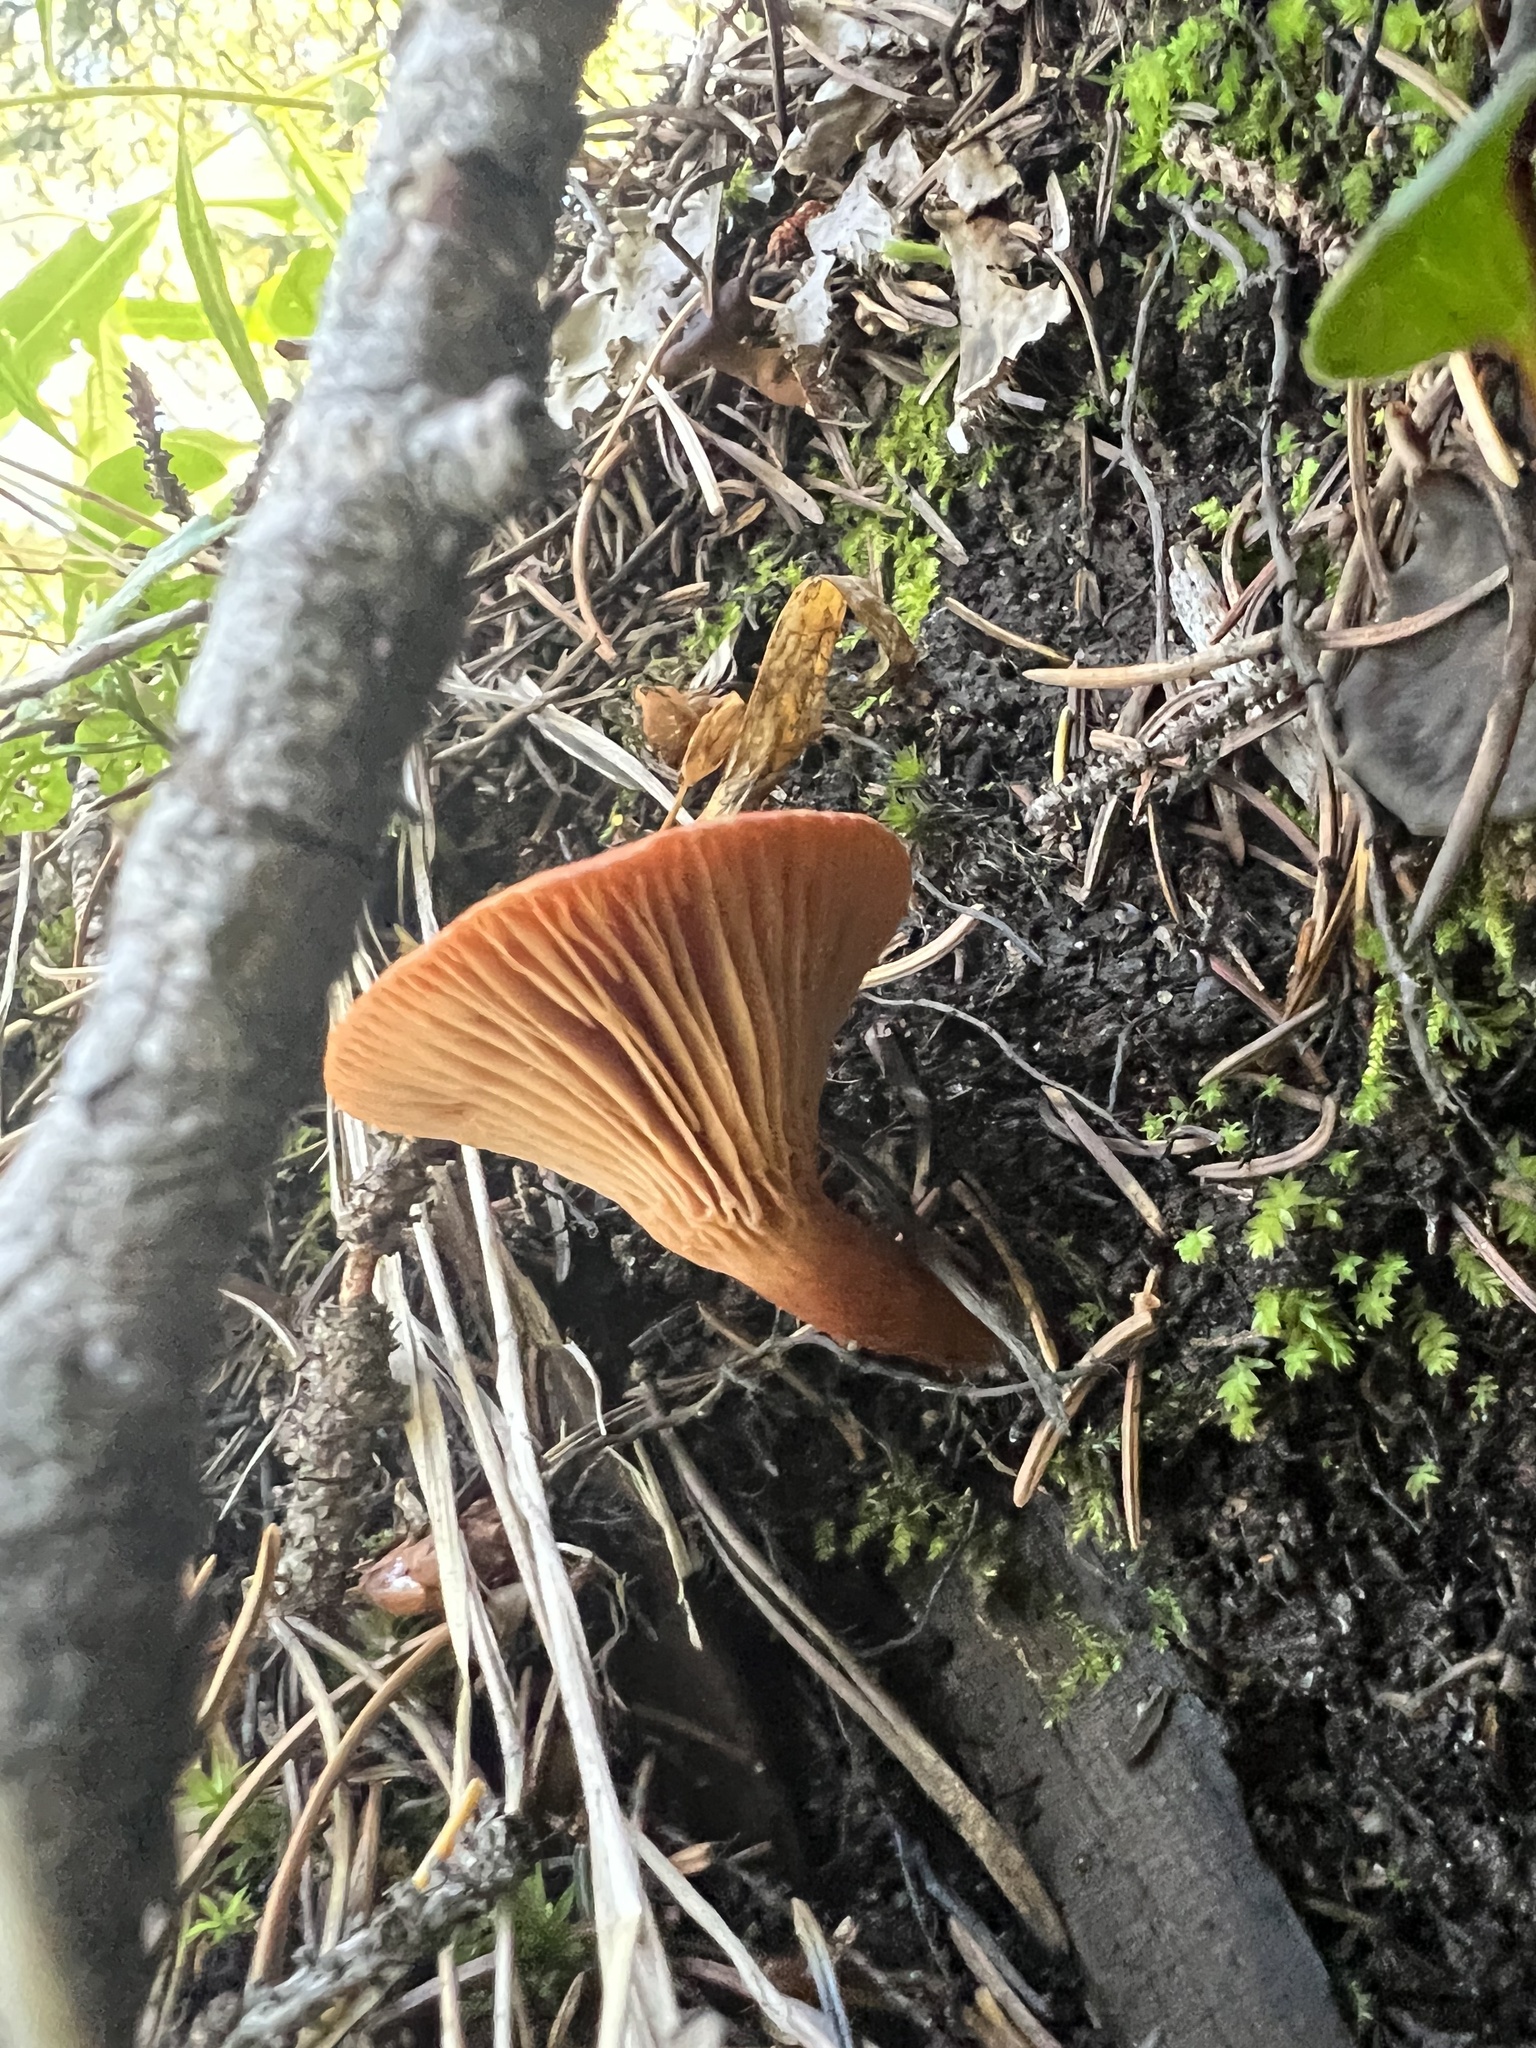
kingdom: Fungi
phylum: Basidiomycota
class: Agaricomycetes
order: Russulales
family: Russulaceae
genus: Lactarius
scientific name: Lactarius badiosanguineus
